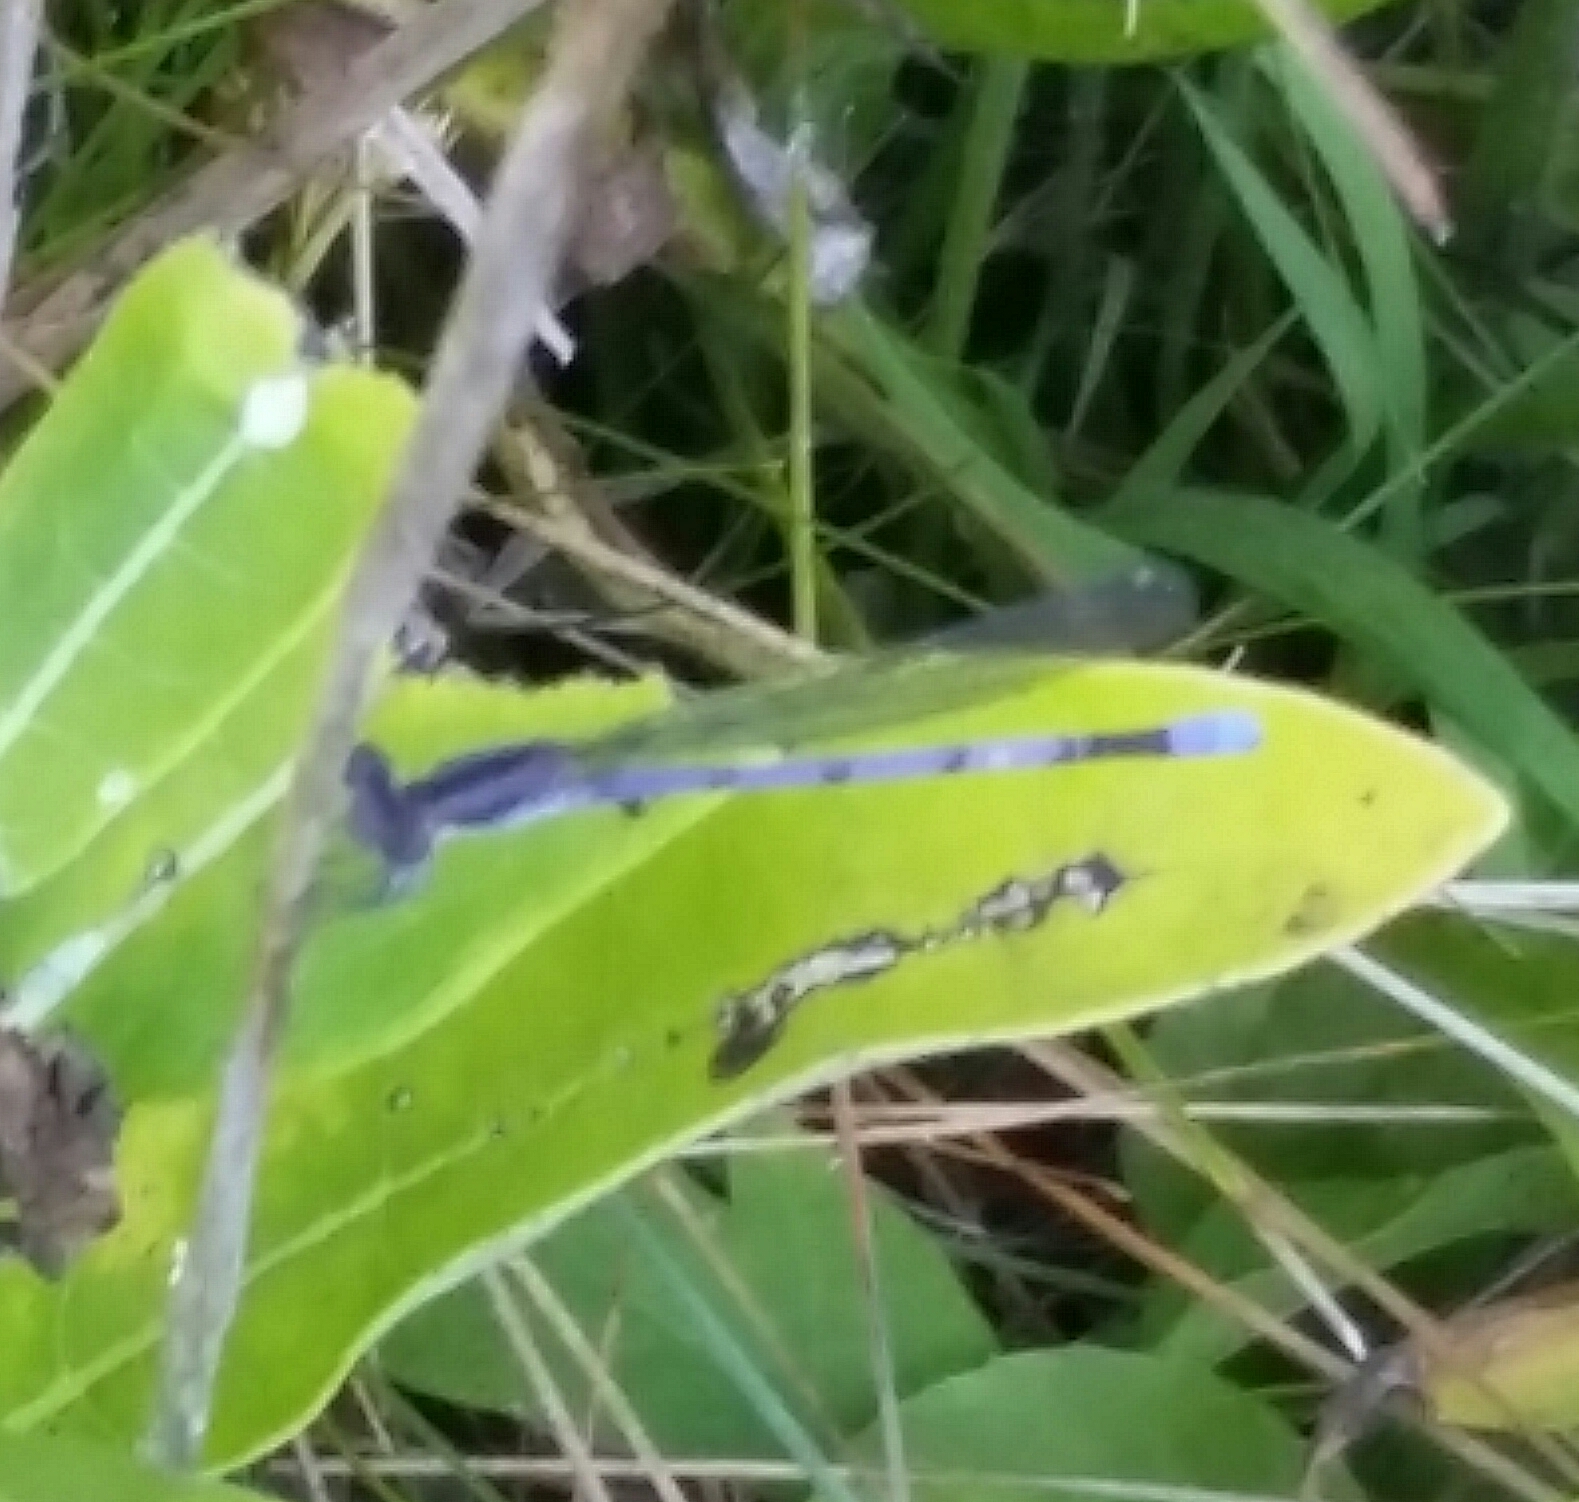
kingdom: Animalia
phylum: Arthropoda
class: Insecta
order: Odonata
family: Coenagrionidae
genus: Argia
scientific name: Argia fumipennis
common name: Variable dancer
